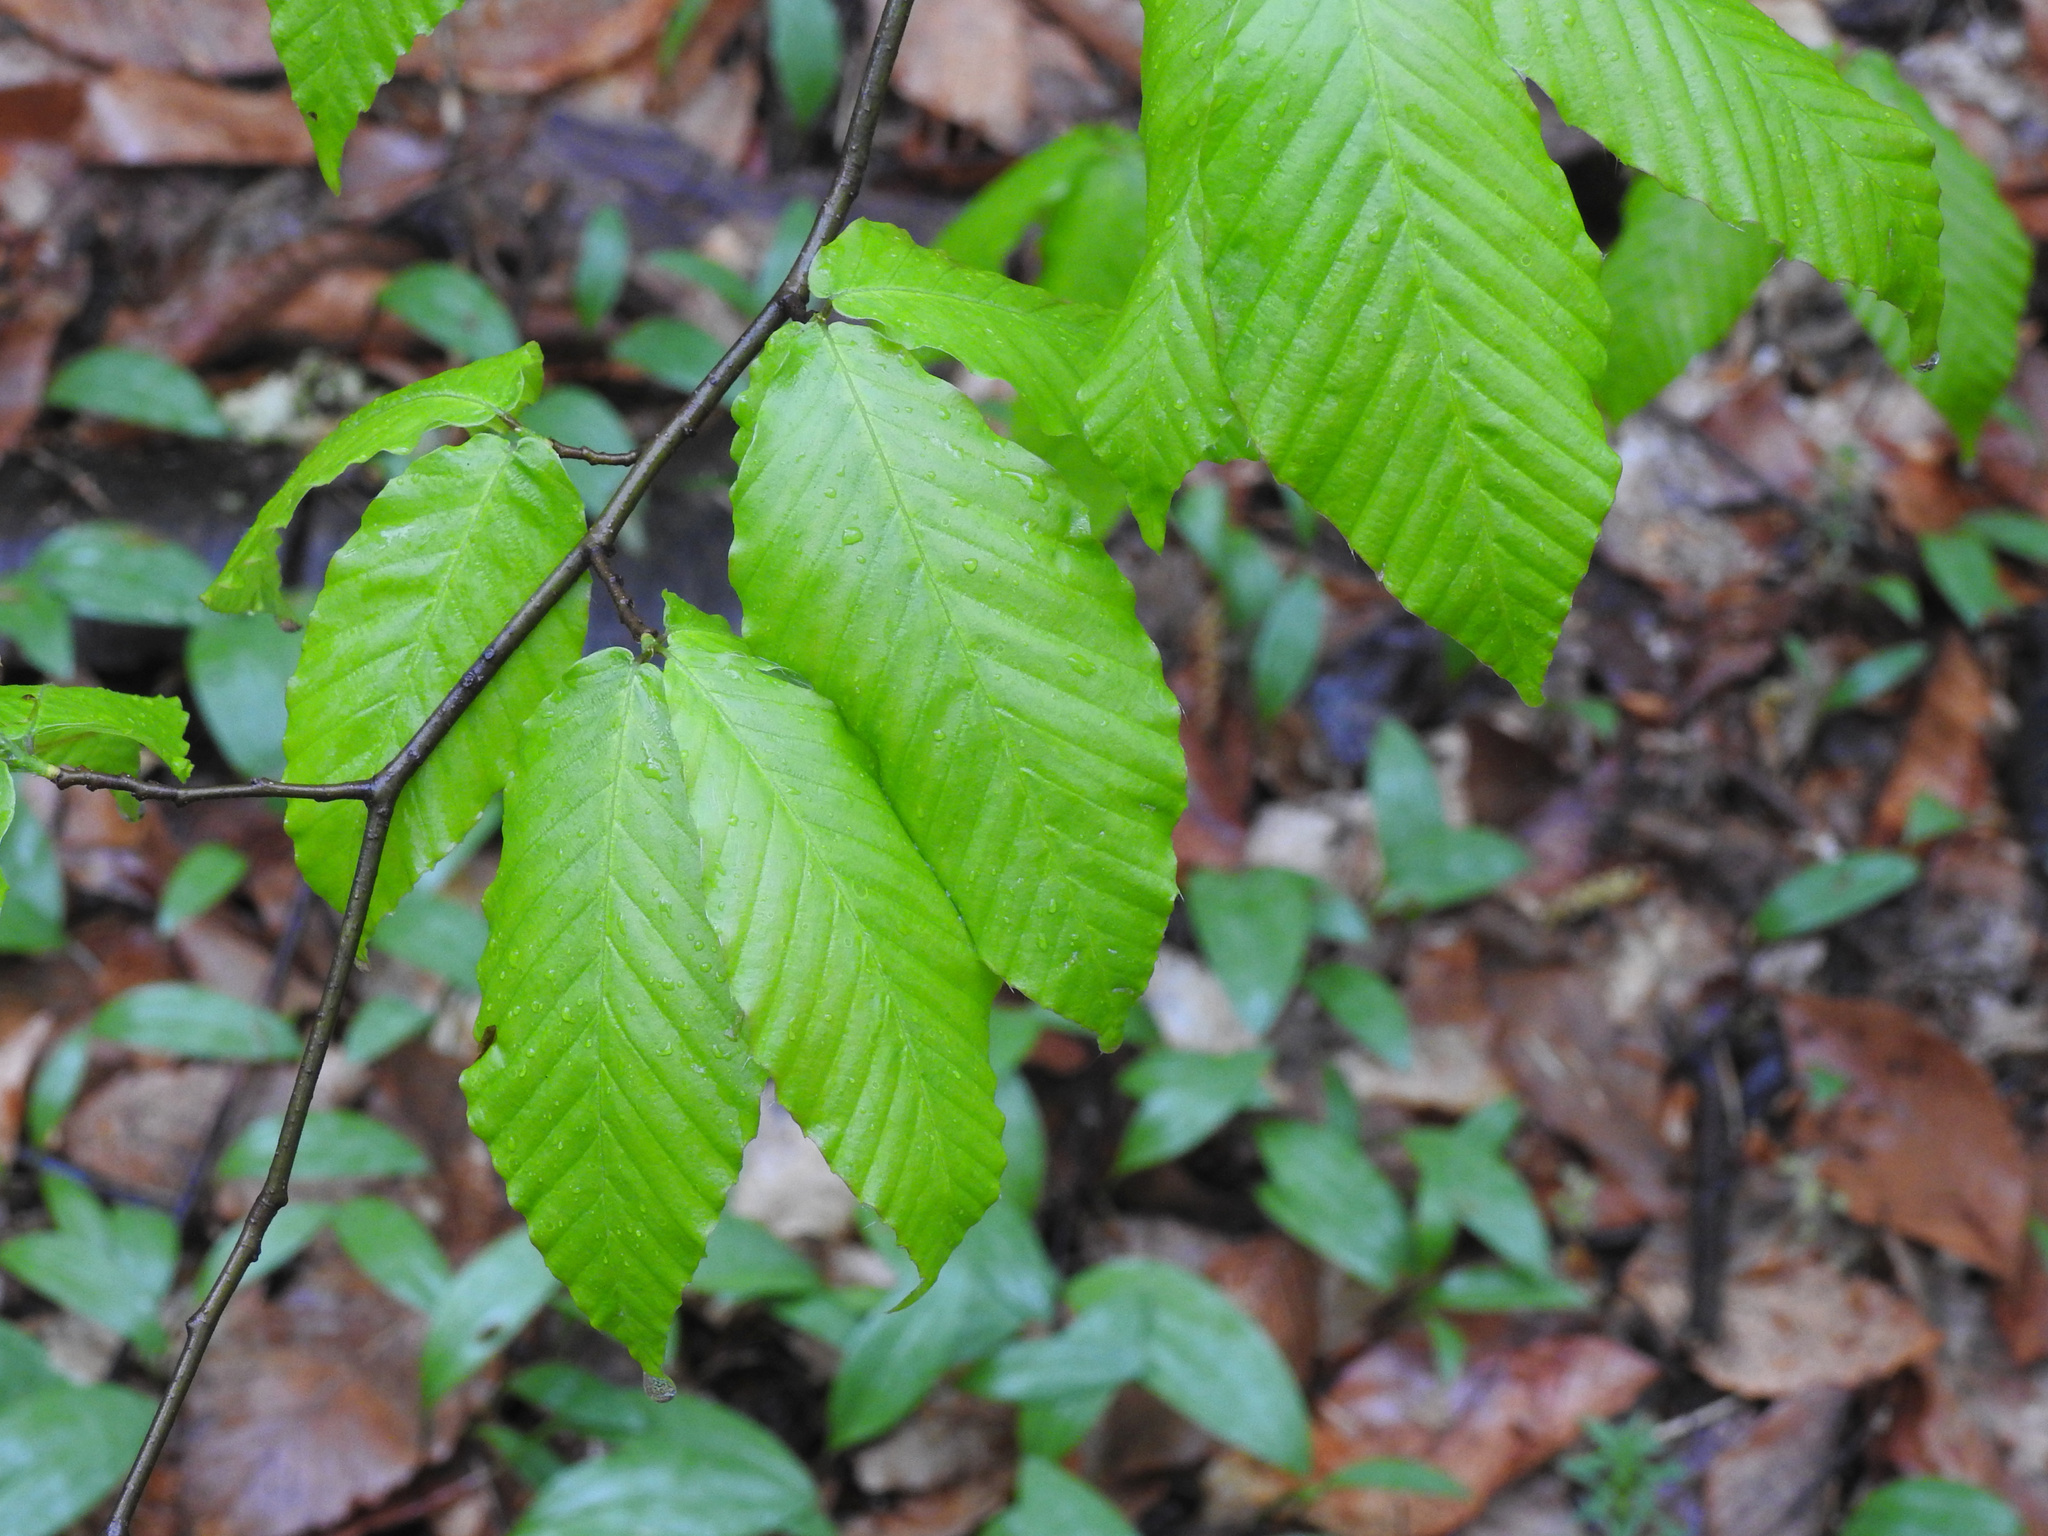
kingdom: Plantae
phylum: Tracheophyta
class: Magnoliopsida
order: Fagales
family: Fagaceae
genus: Fagus
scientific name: Fagus grandifolia
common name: American beech
